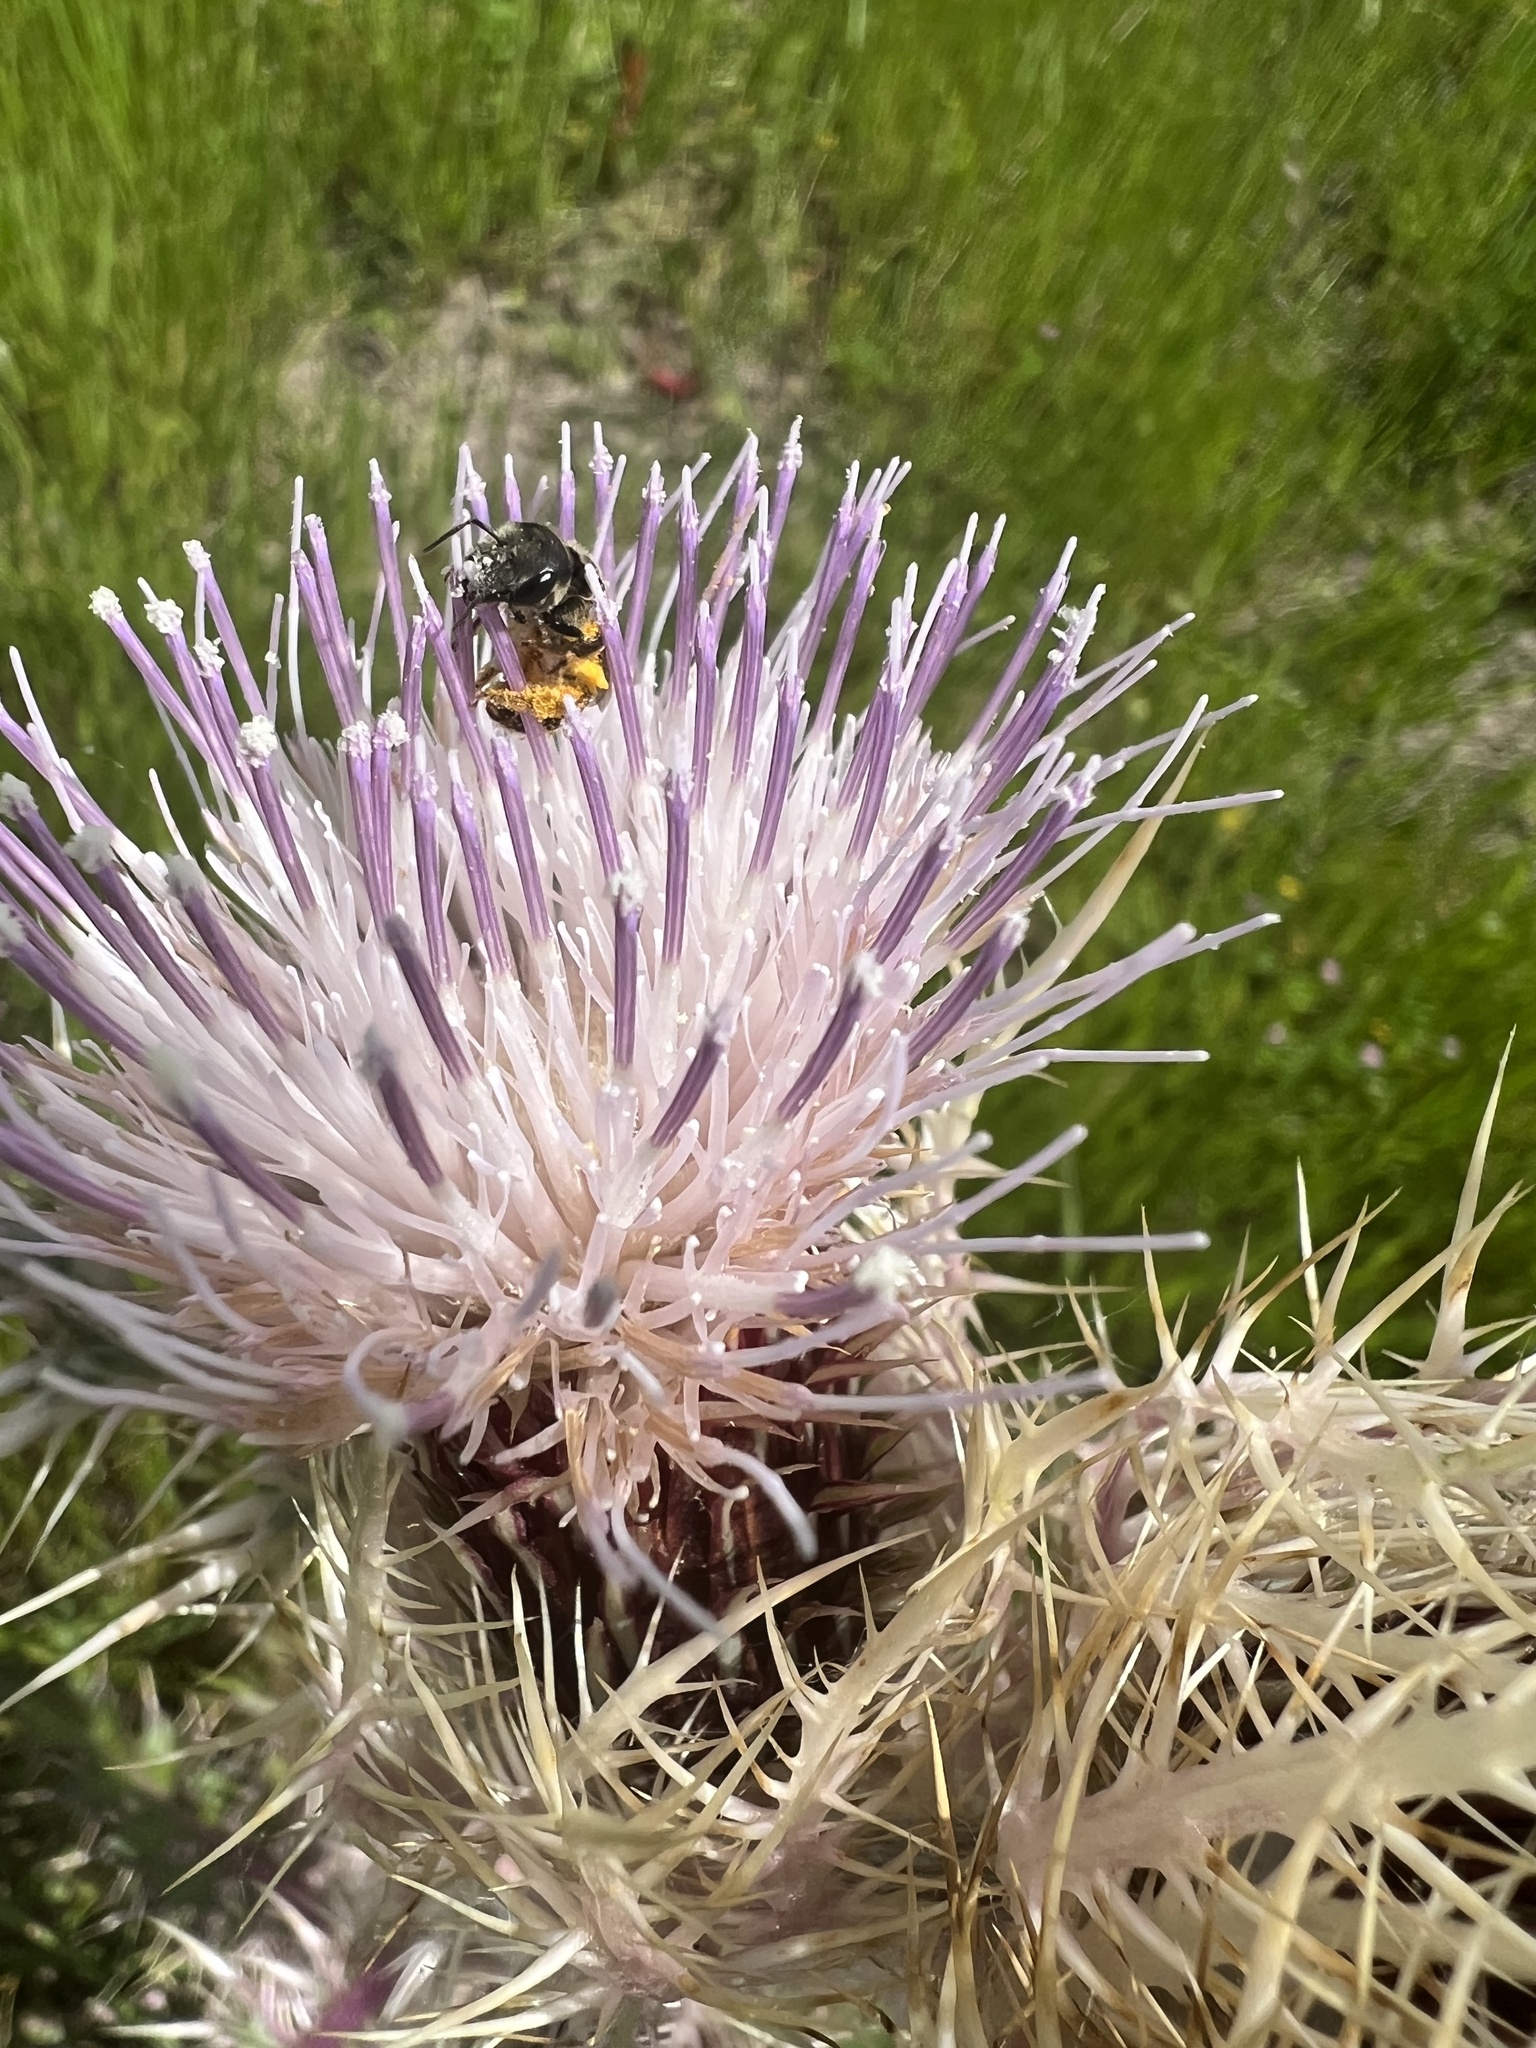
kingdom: Animalia
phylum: Arthropoda
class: Insecta
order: Hymenoptera
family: Halictidae
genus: Halictus
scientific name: Halictus ligatus
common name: Ligated furrow bee
